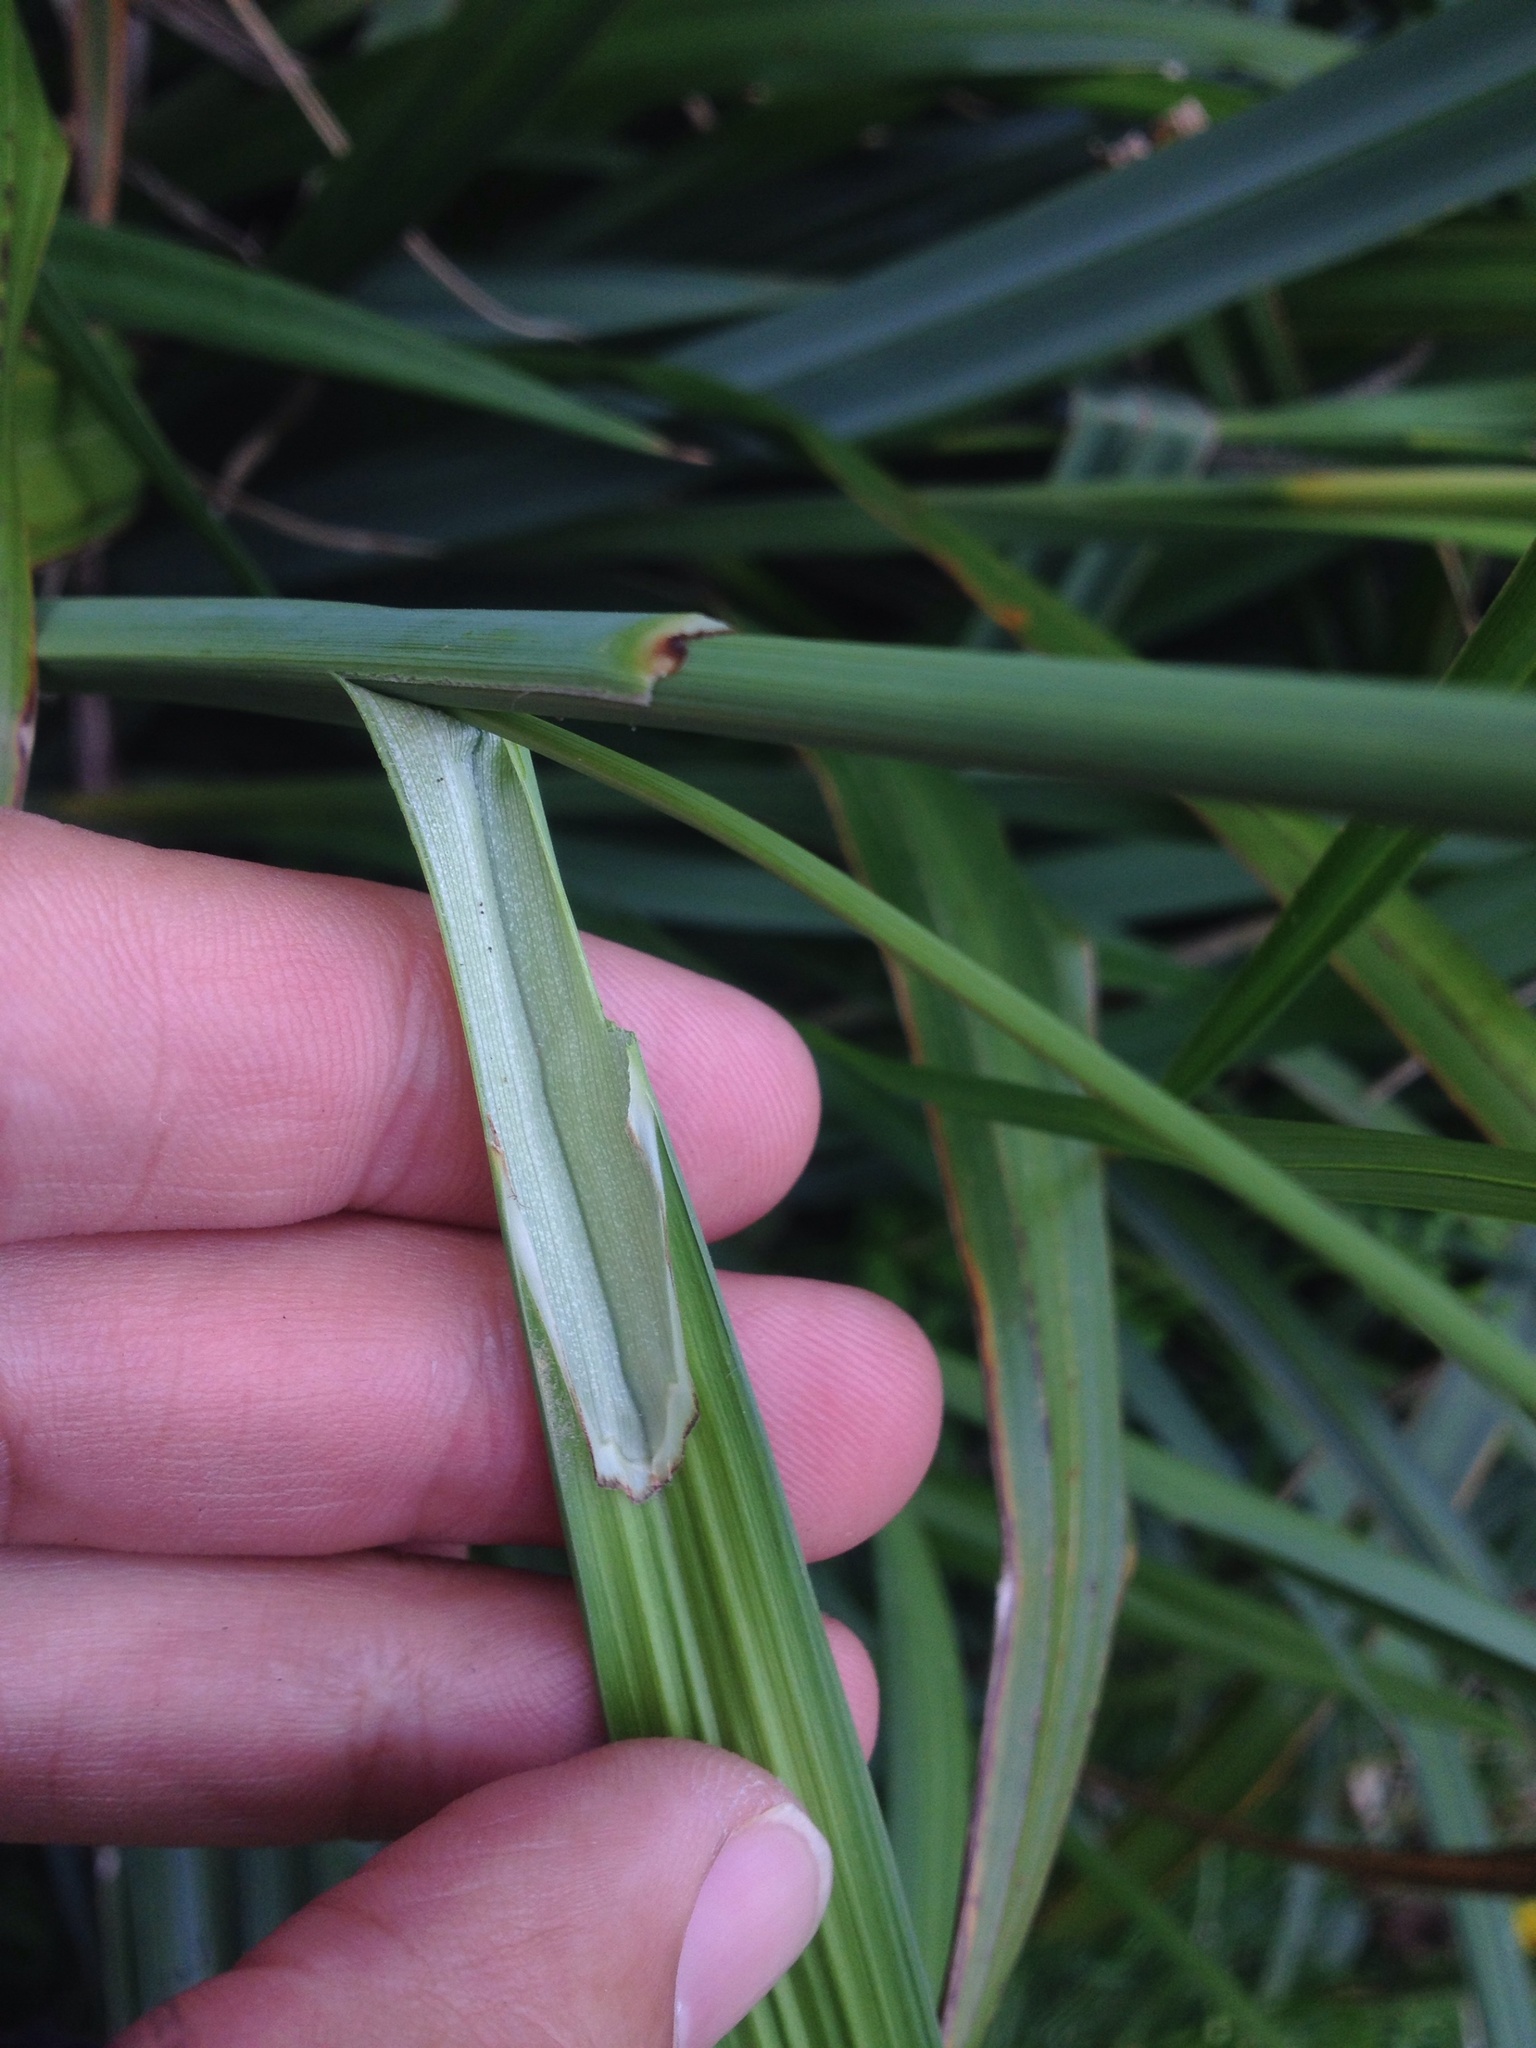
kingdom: Plantae
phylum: Tracheophyta
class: Liliopsida
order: Poales
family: Cyperaceae
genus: Carex
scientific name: Carex pendula
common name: Pendulous sedge
